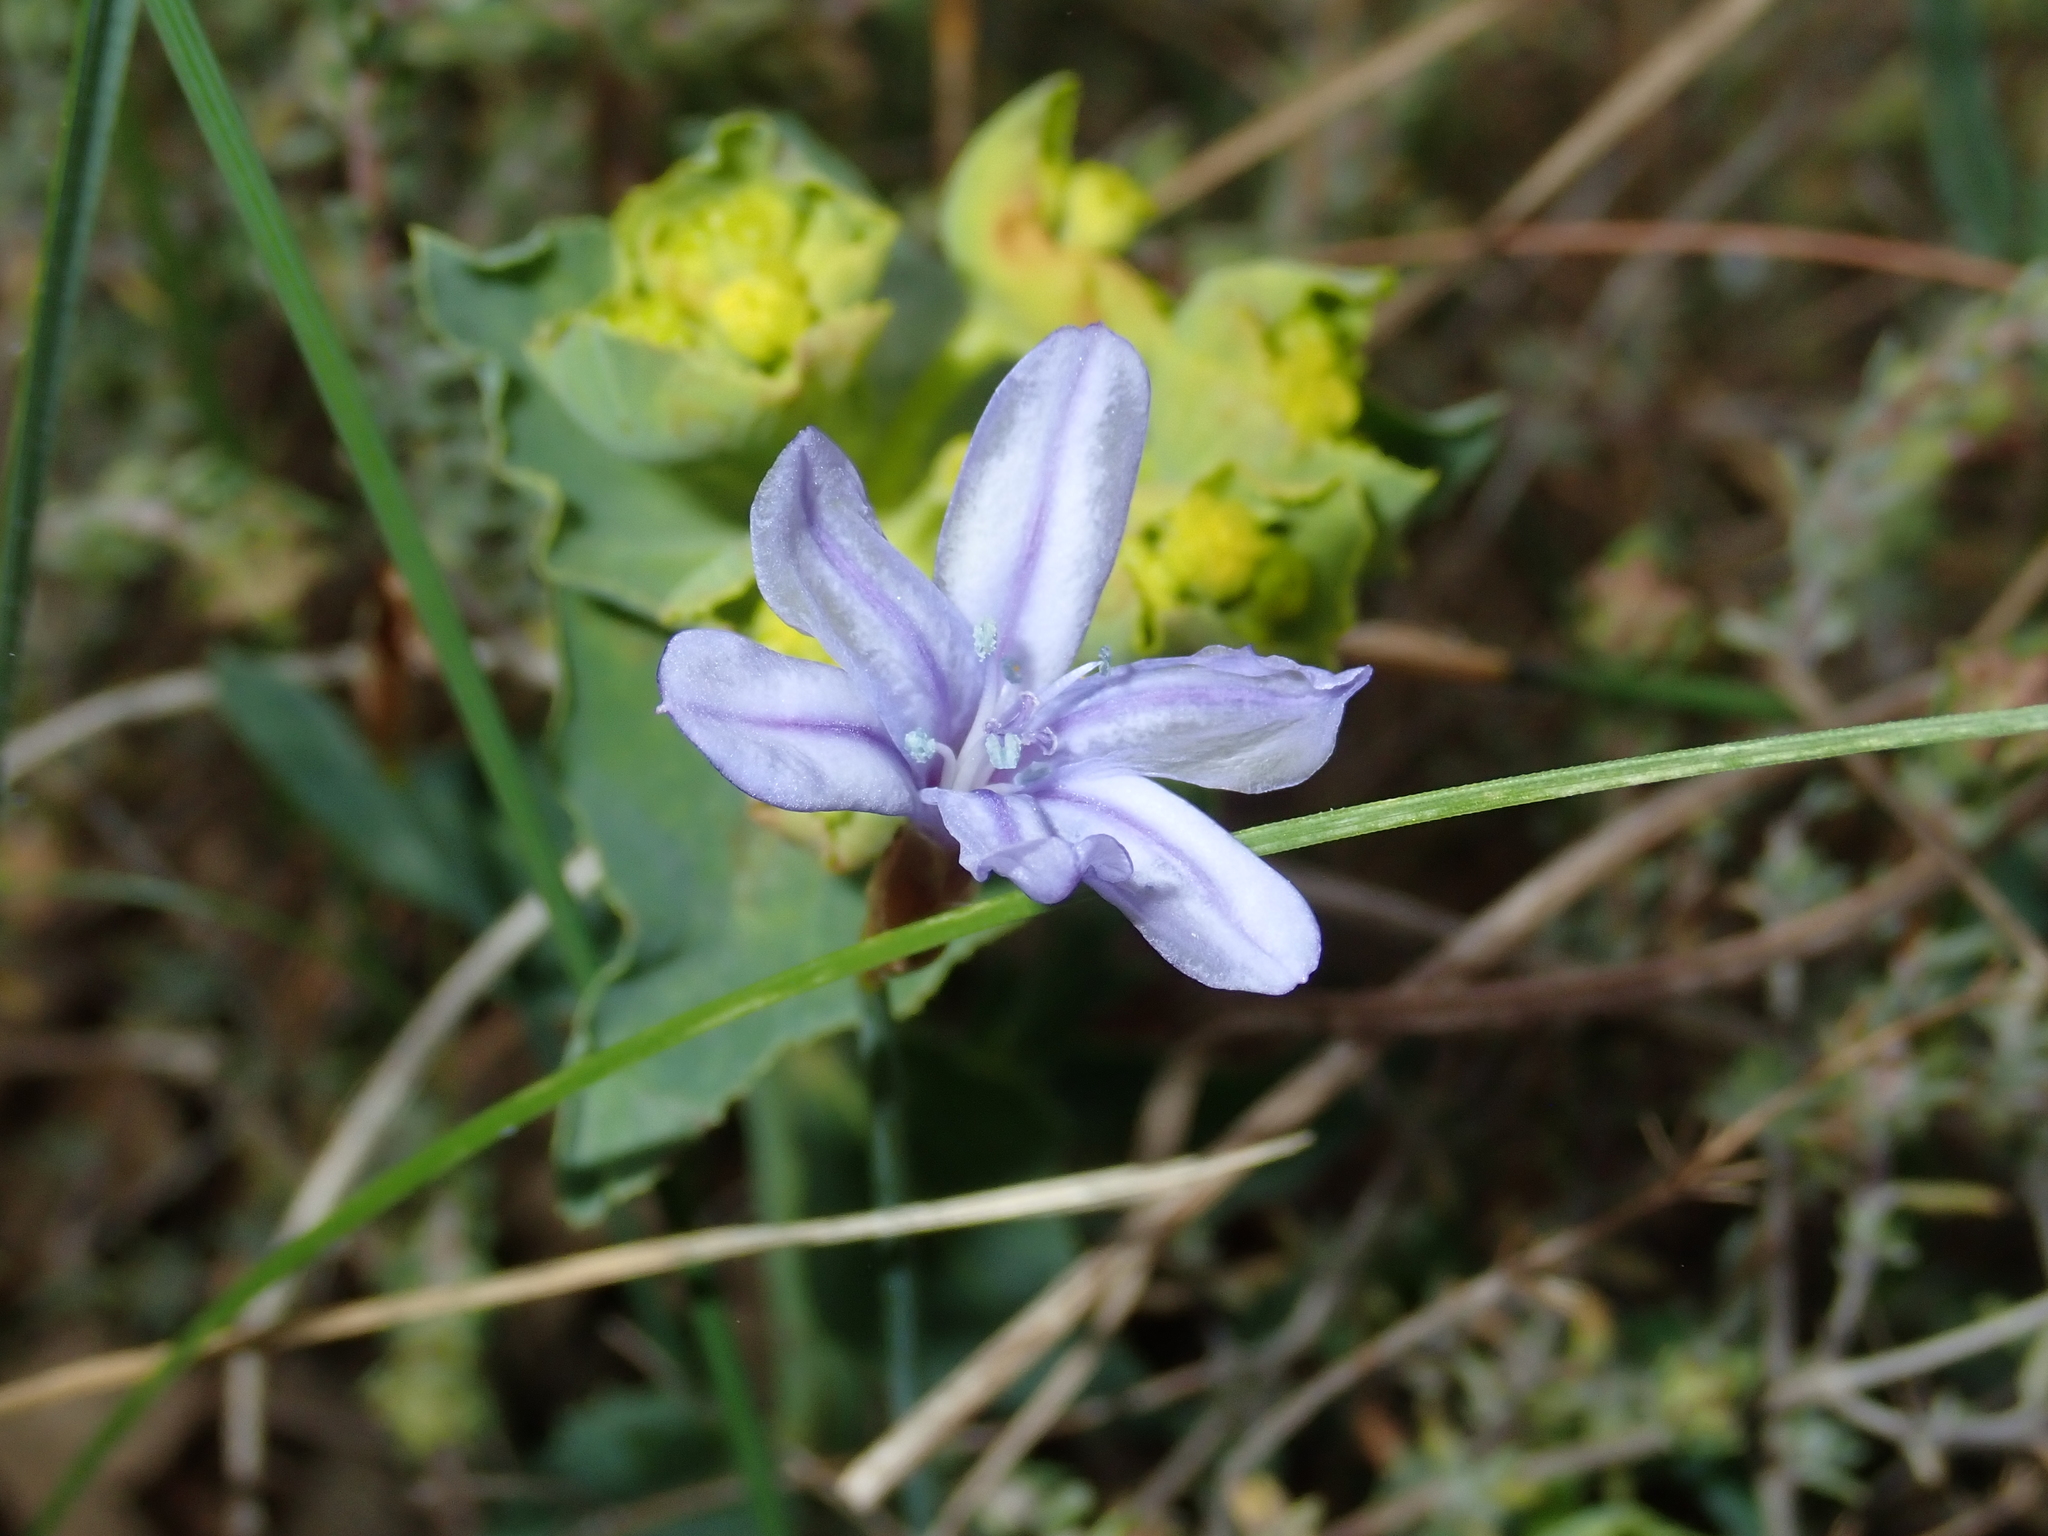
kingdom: Plantae
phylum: Tracheophyta
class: Liliopsida
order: Asparagales
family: Asparagaceae
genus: Aphyllanthes
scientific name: Aphyllanthes monspeliensis
